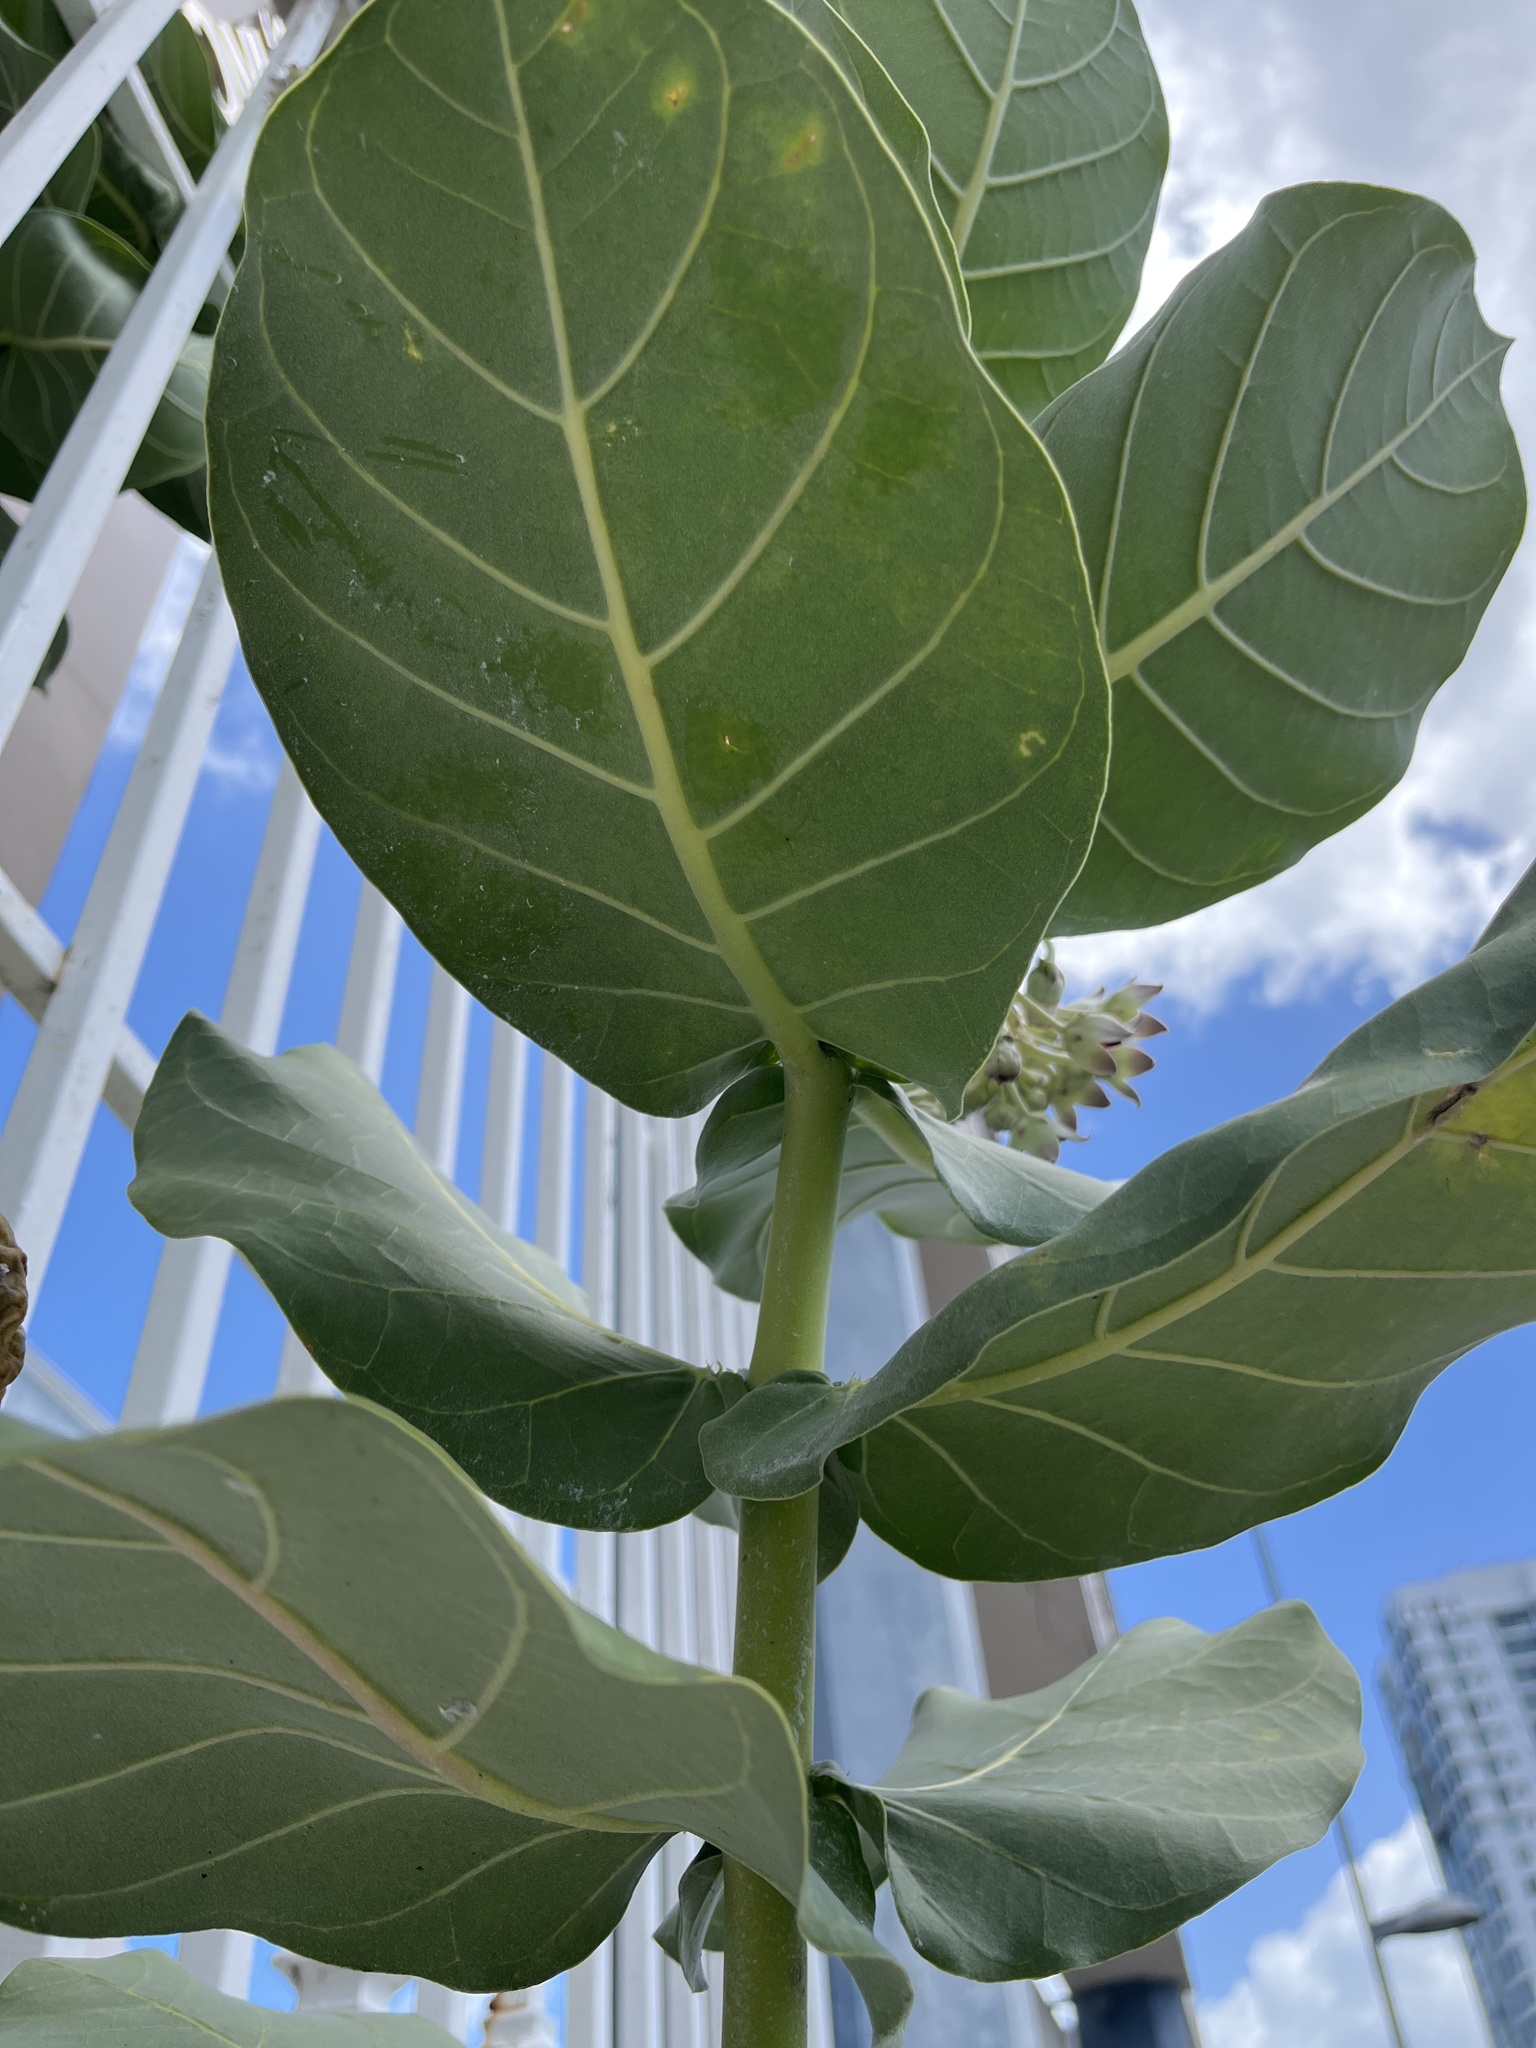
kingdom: Plantae
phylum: Tracheophyta
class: Magnoliopsida
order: Gentianales
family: Apocynaceae
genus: Calotropis
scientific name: Calotropis procera
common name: Roostertree
